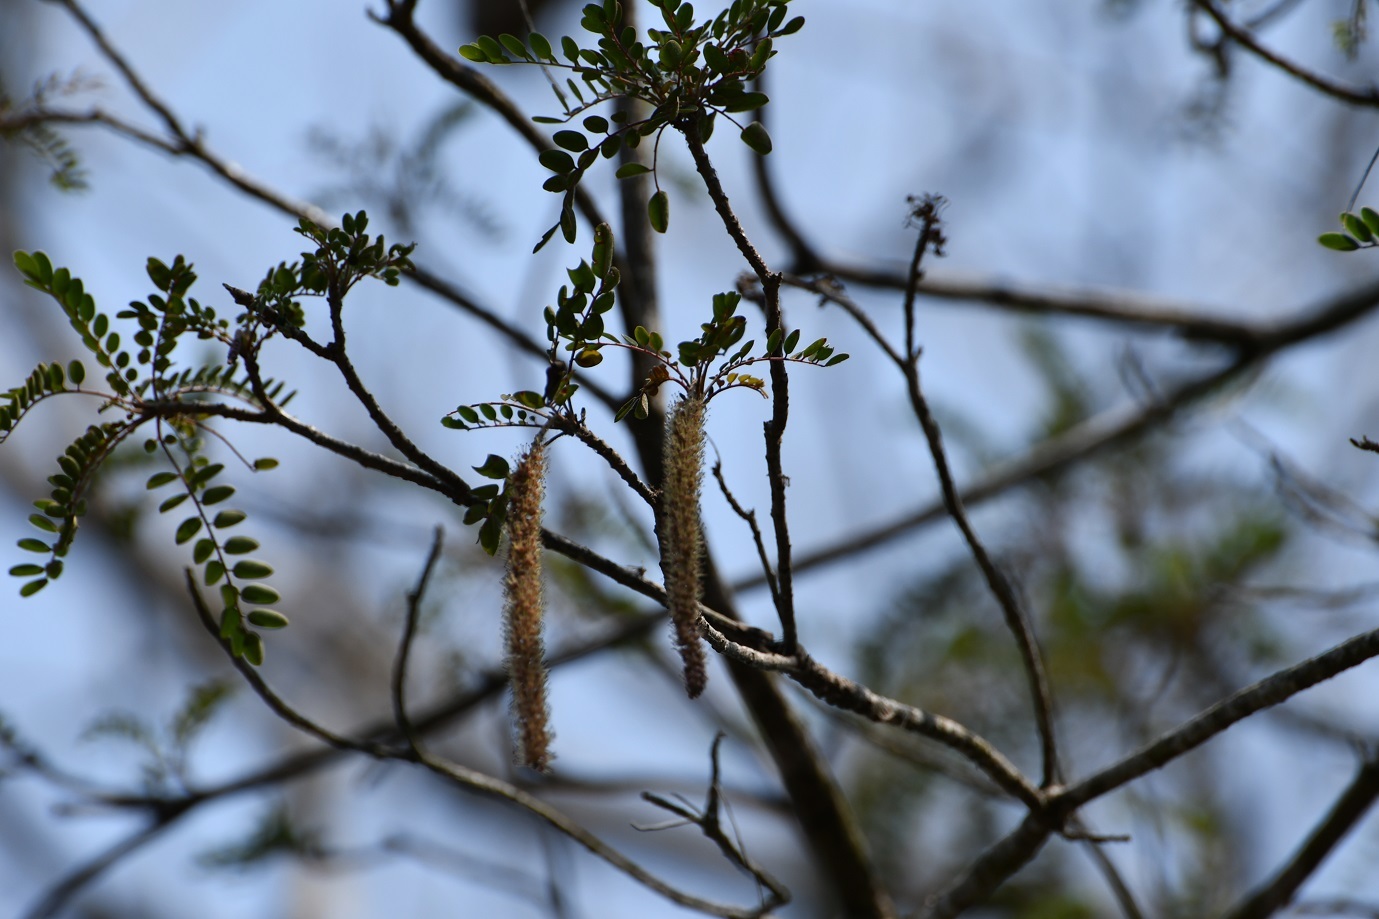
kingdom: Plantae
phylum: Tracheophyta
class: Magnoliopsida
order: Picramniales
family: Picramniaceae
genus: Alvaradoa
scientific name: Alvaradoa amorphoides
